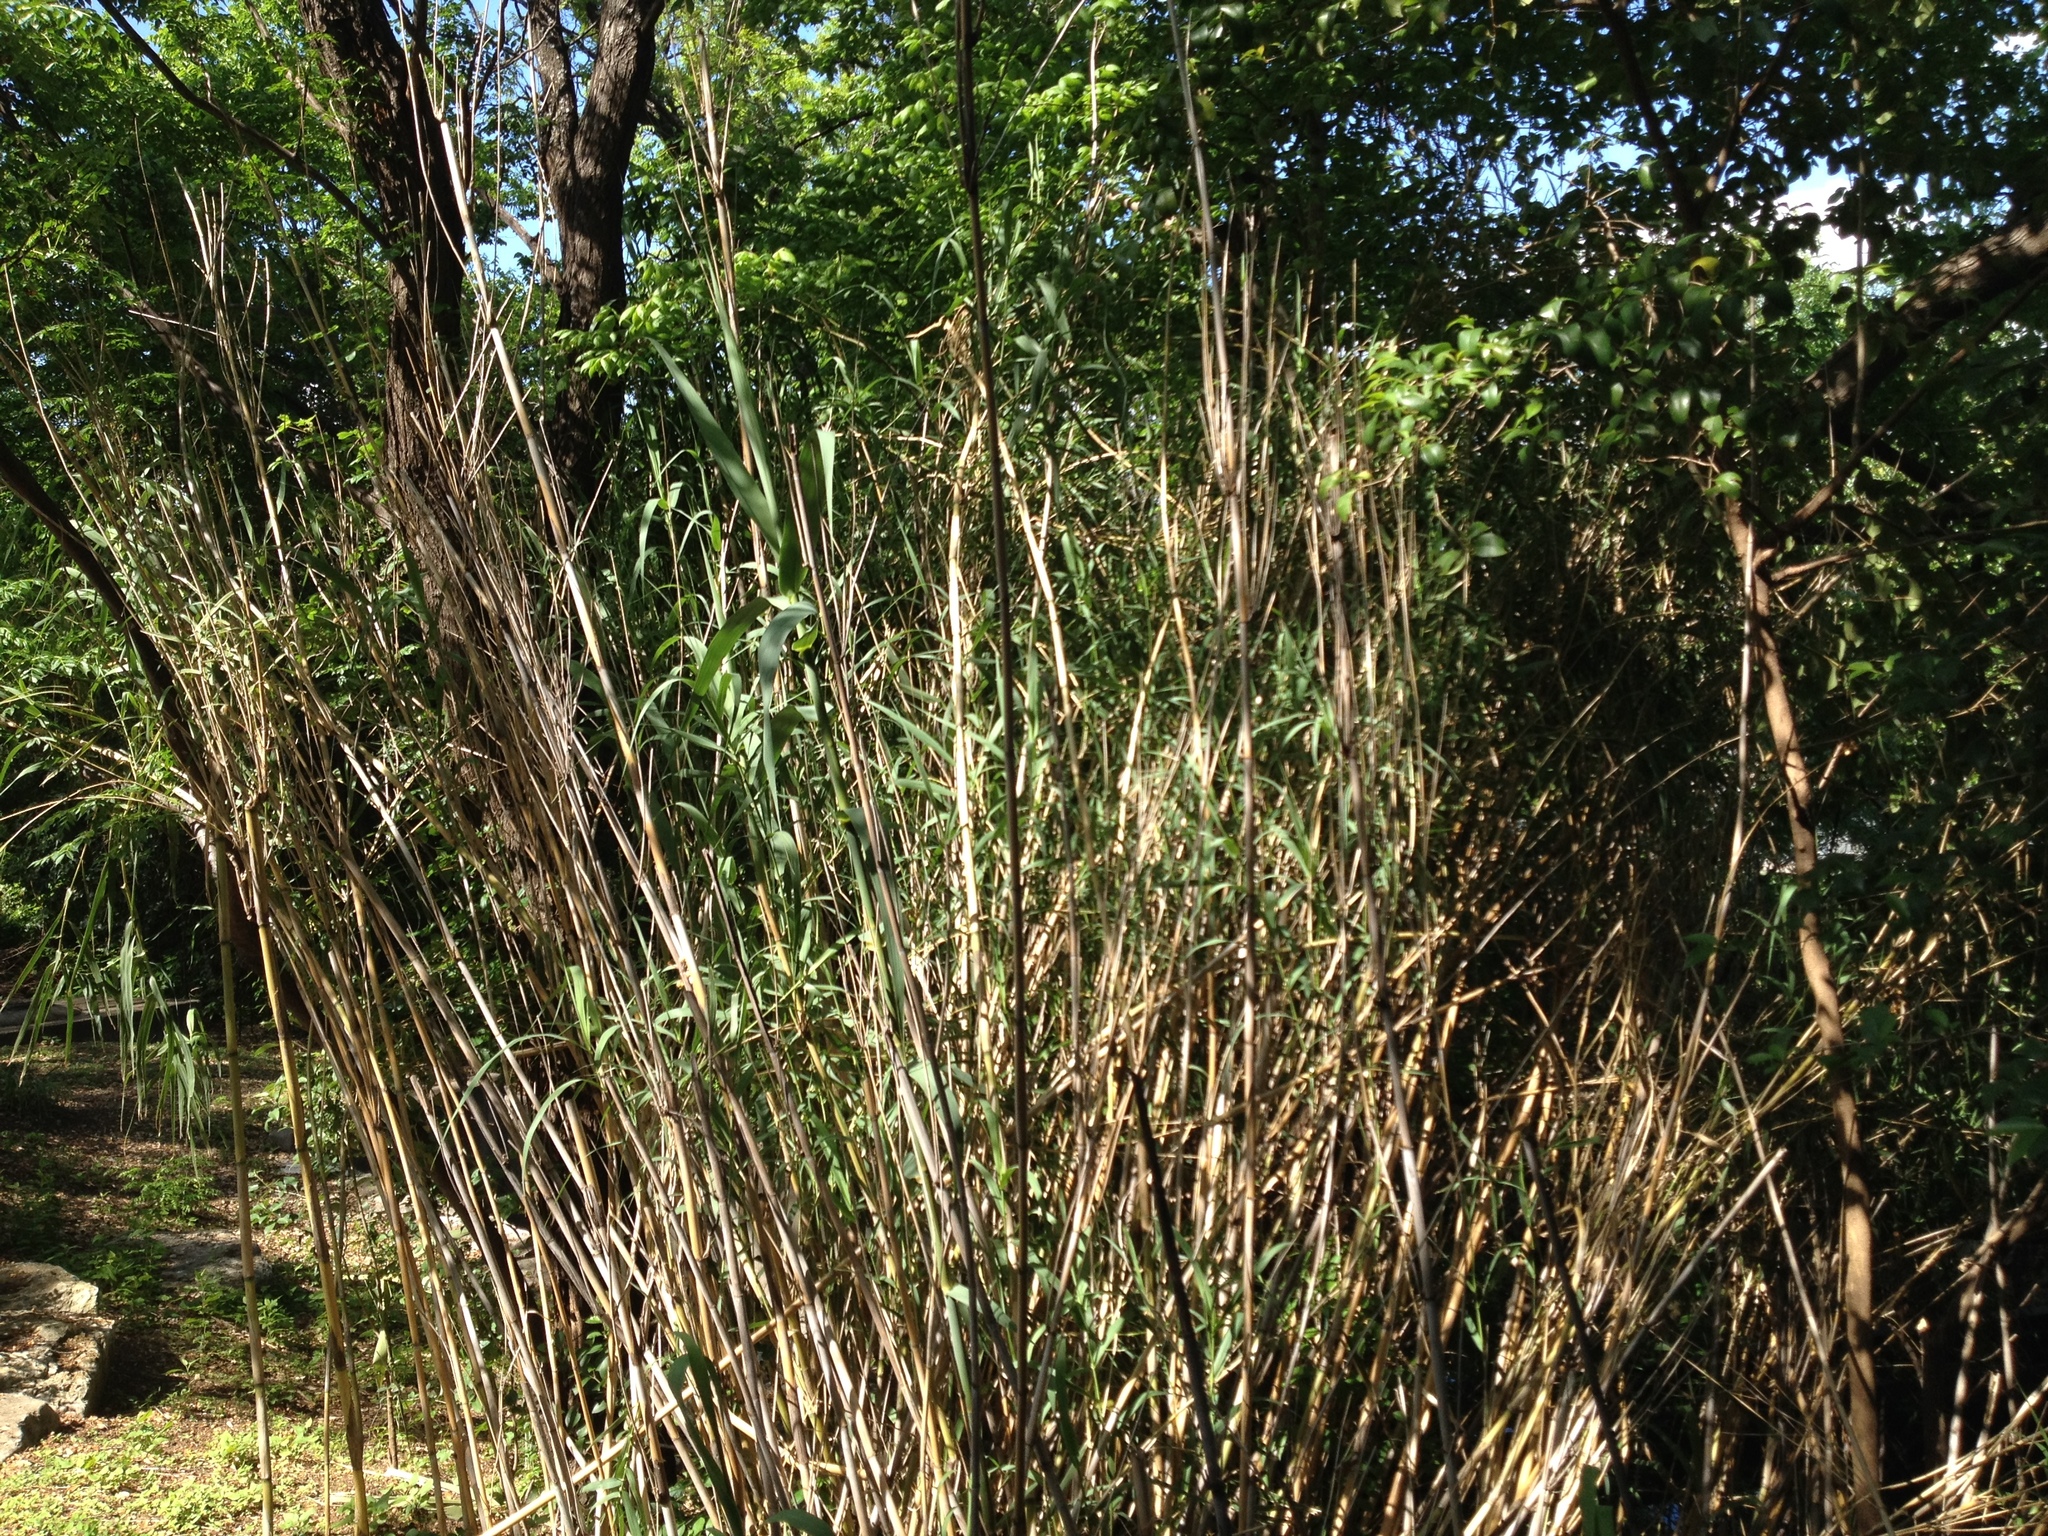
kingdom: Plantae
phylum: Tracheophyta
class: Liliopsida
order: Poales
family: Poaceae
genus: Arundo
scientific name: Arundo donax
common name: Giant reed
